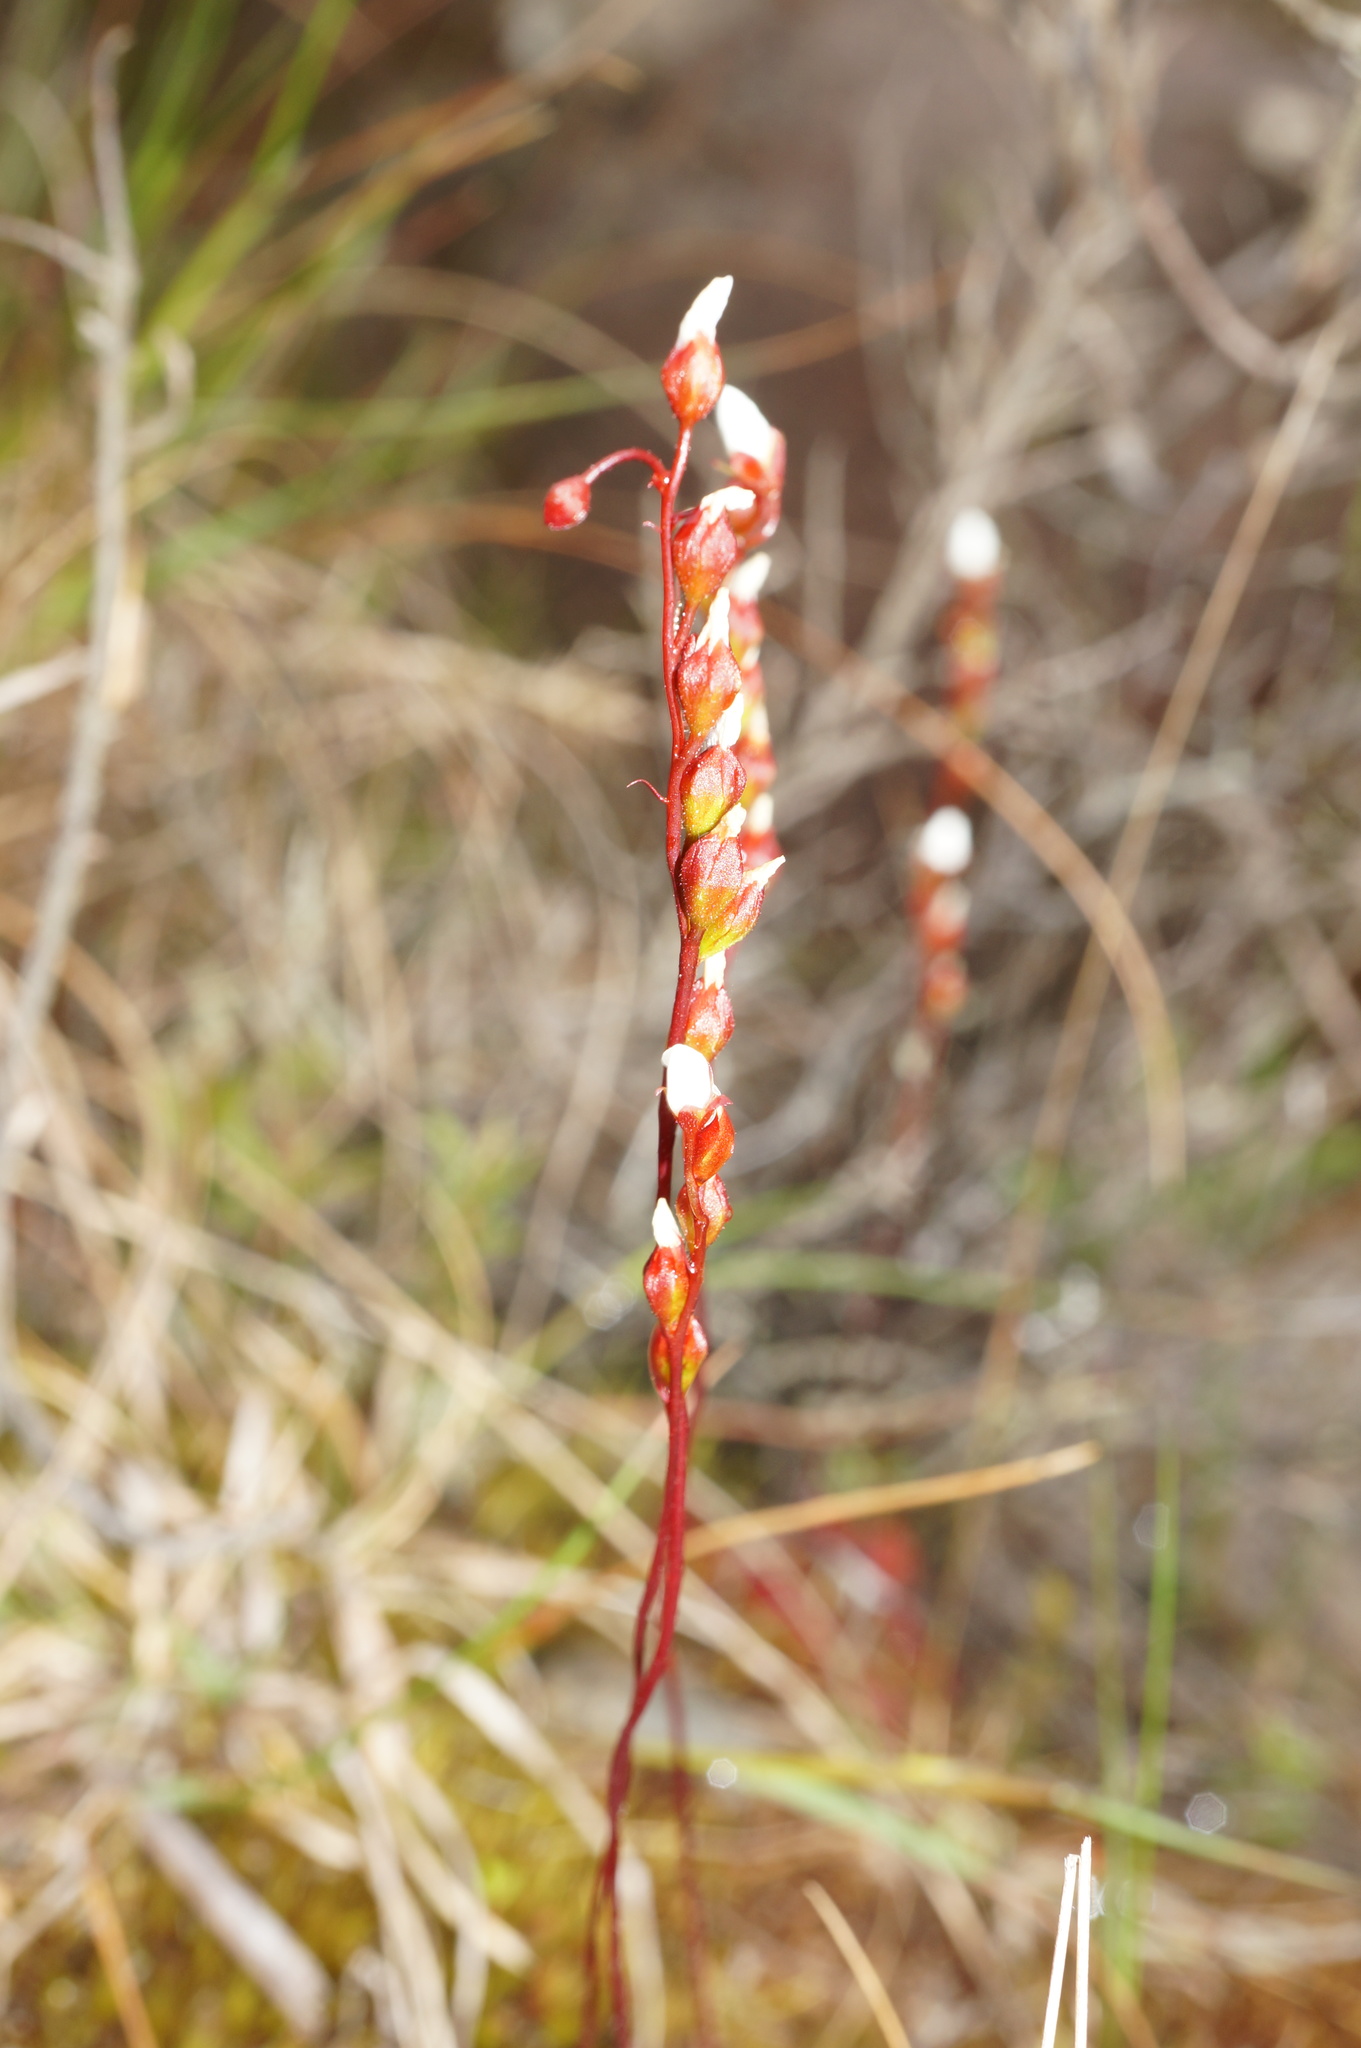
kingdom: Plantae
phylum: Tracheophyta
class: Magnoliopsida
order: Caryophyllales
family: Droseraceae
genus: Drosera
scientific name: Drosera spatulata
